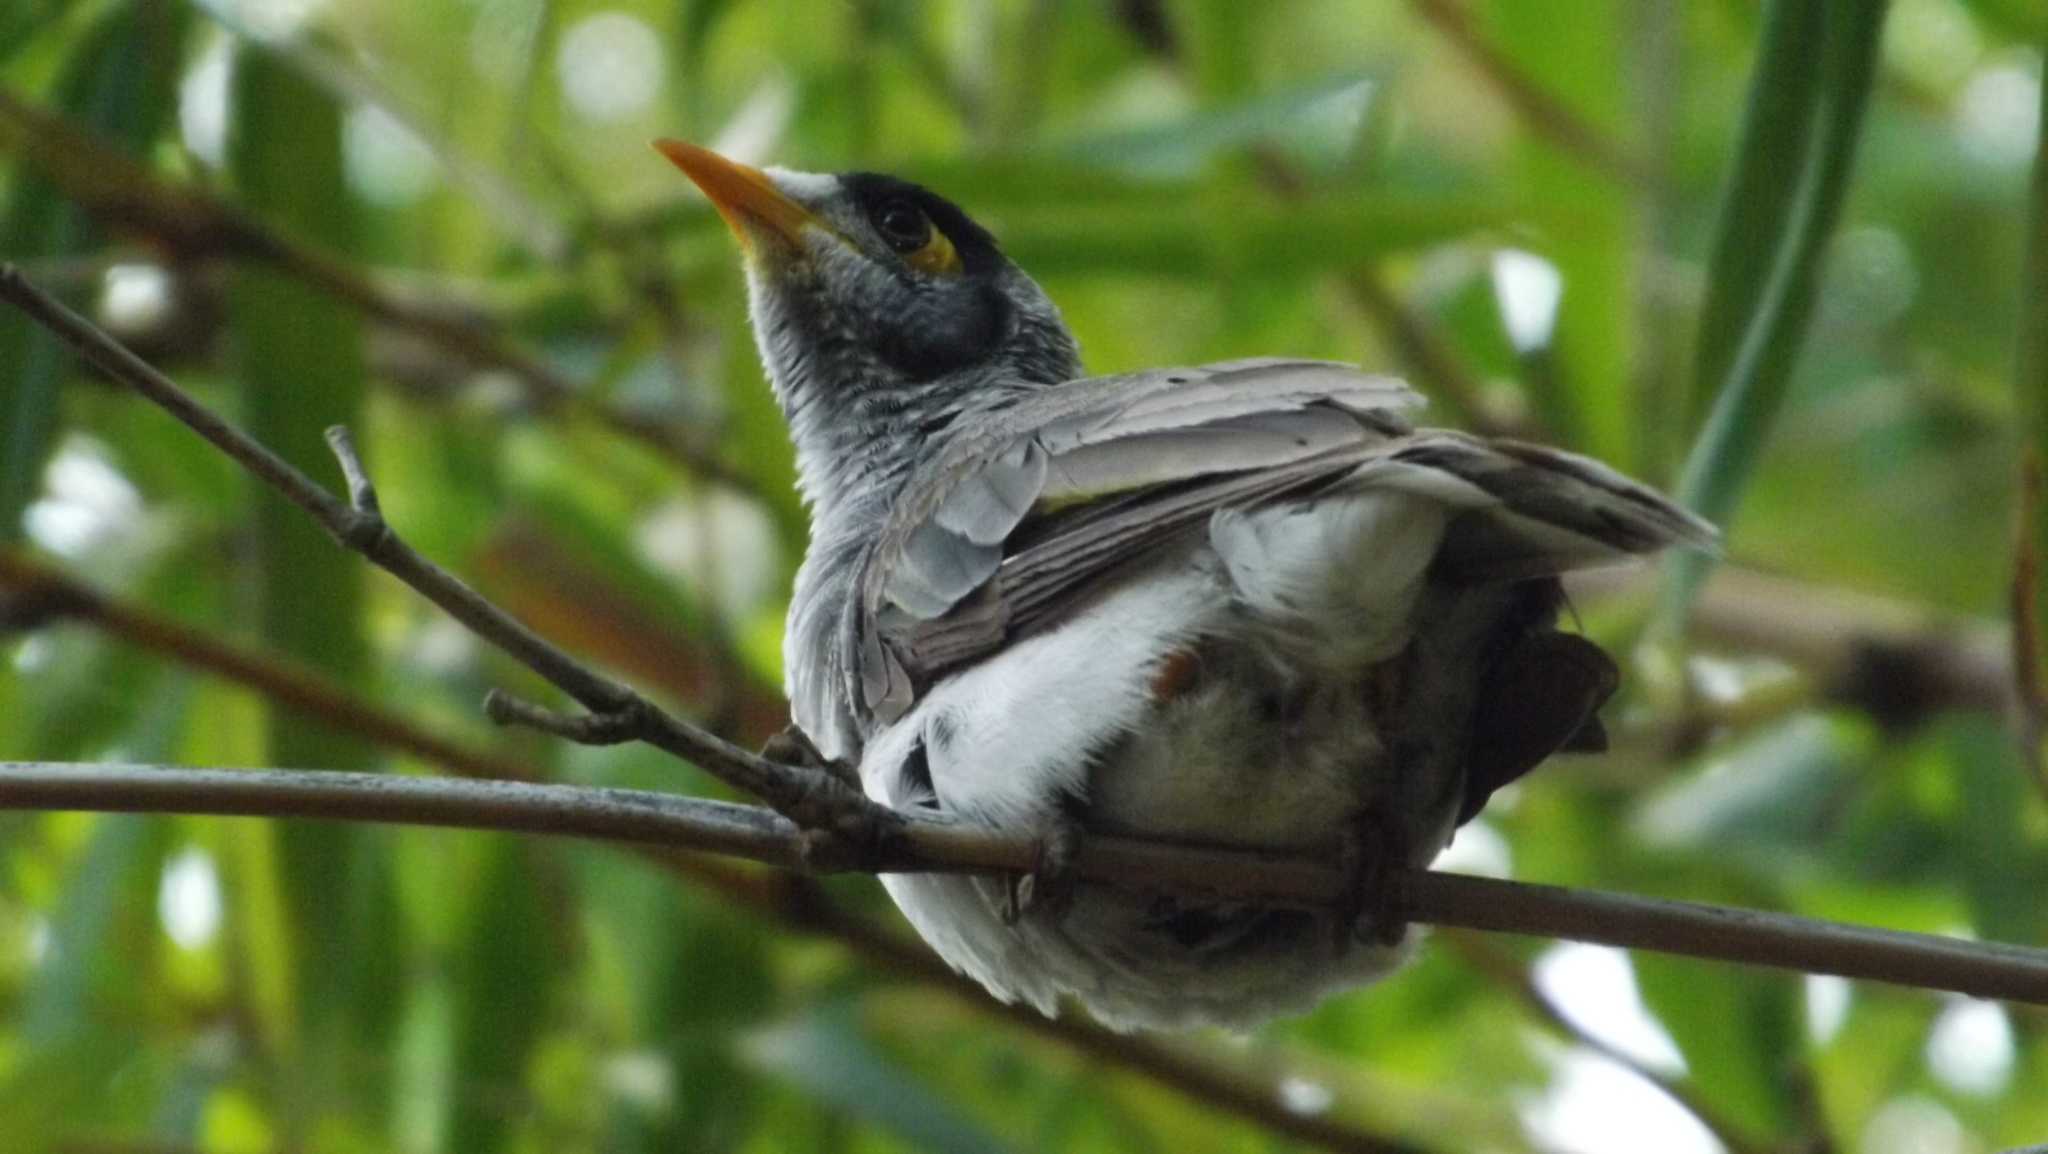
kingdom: Animalia
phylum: Chordata
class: Aves
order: Passeriformes
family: Meliphagidae
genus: Manorina
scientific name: Manorina melanocephala
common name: Noisy miner
